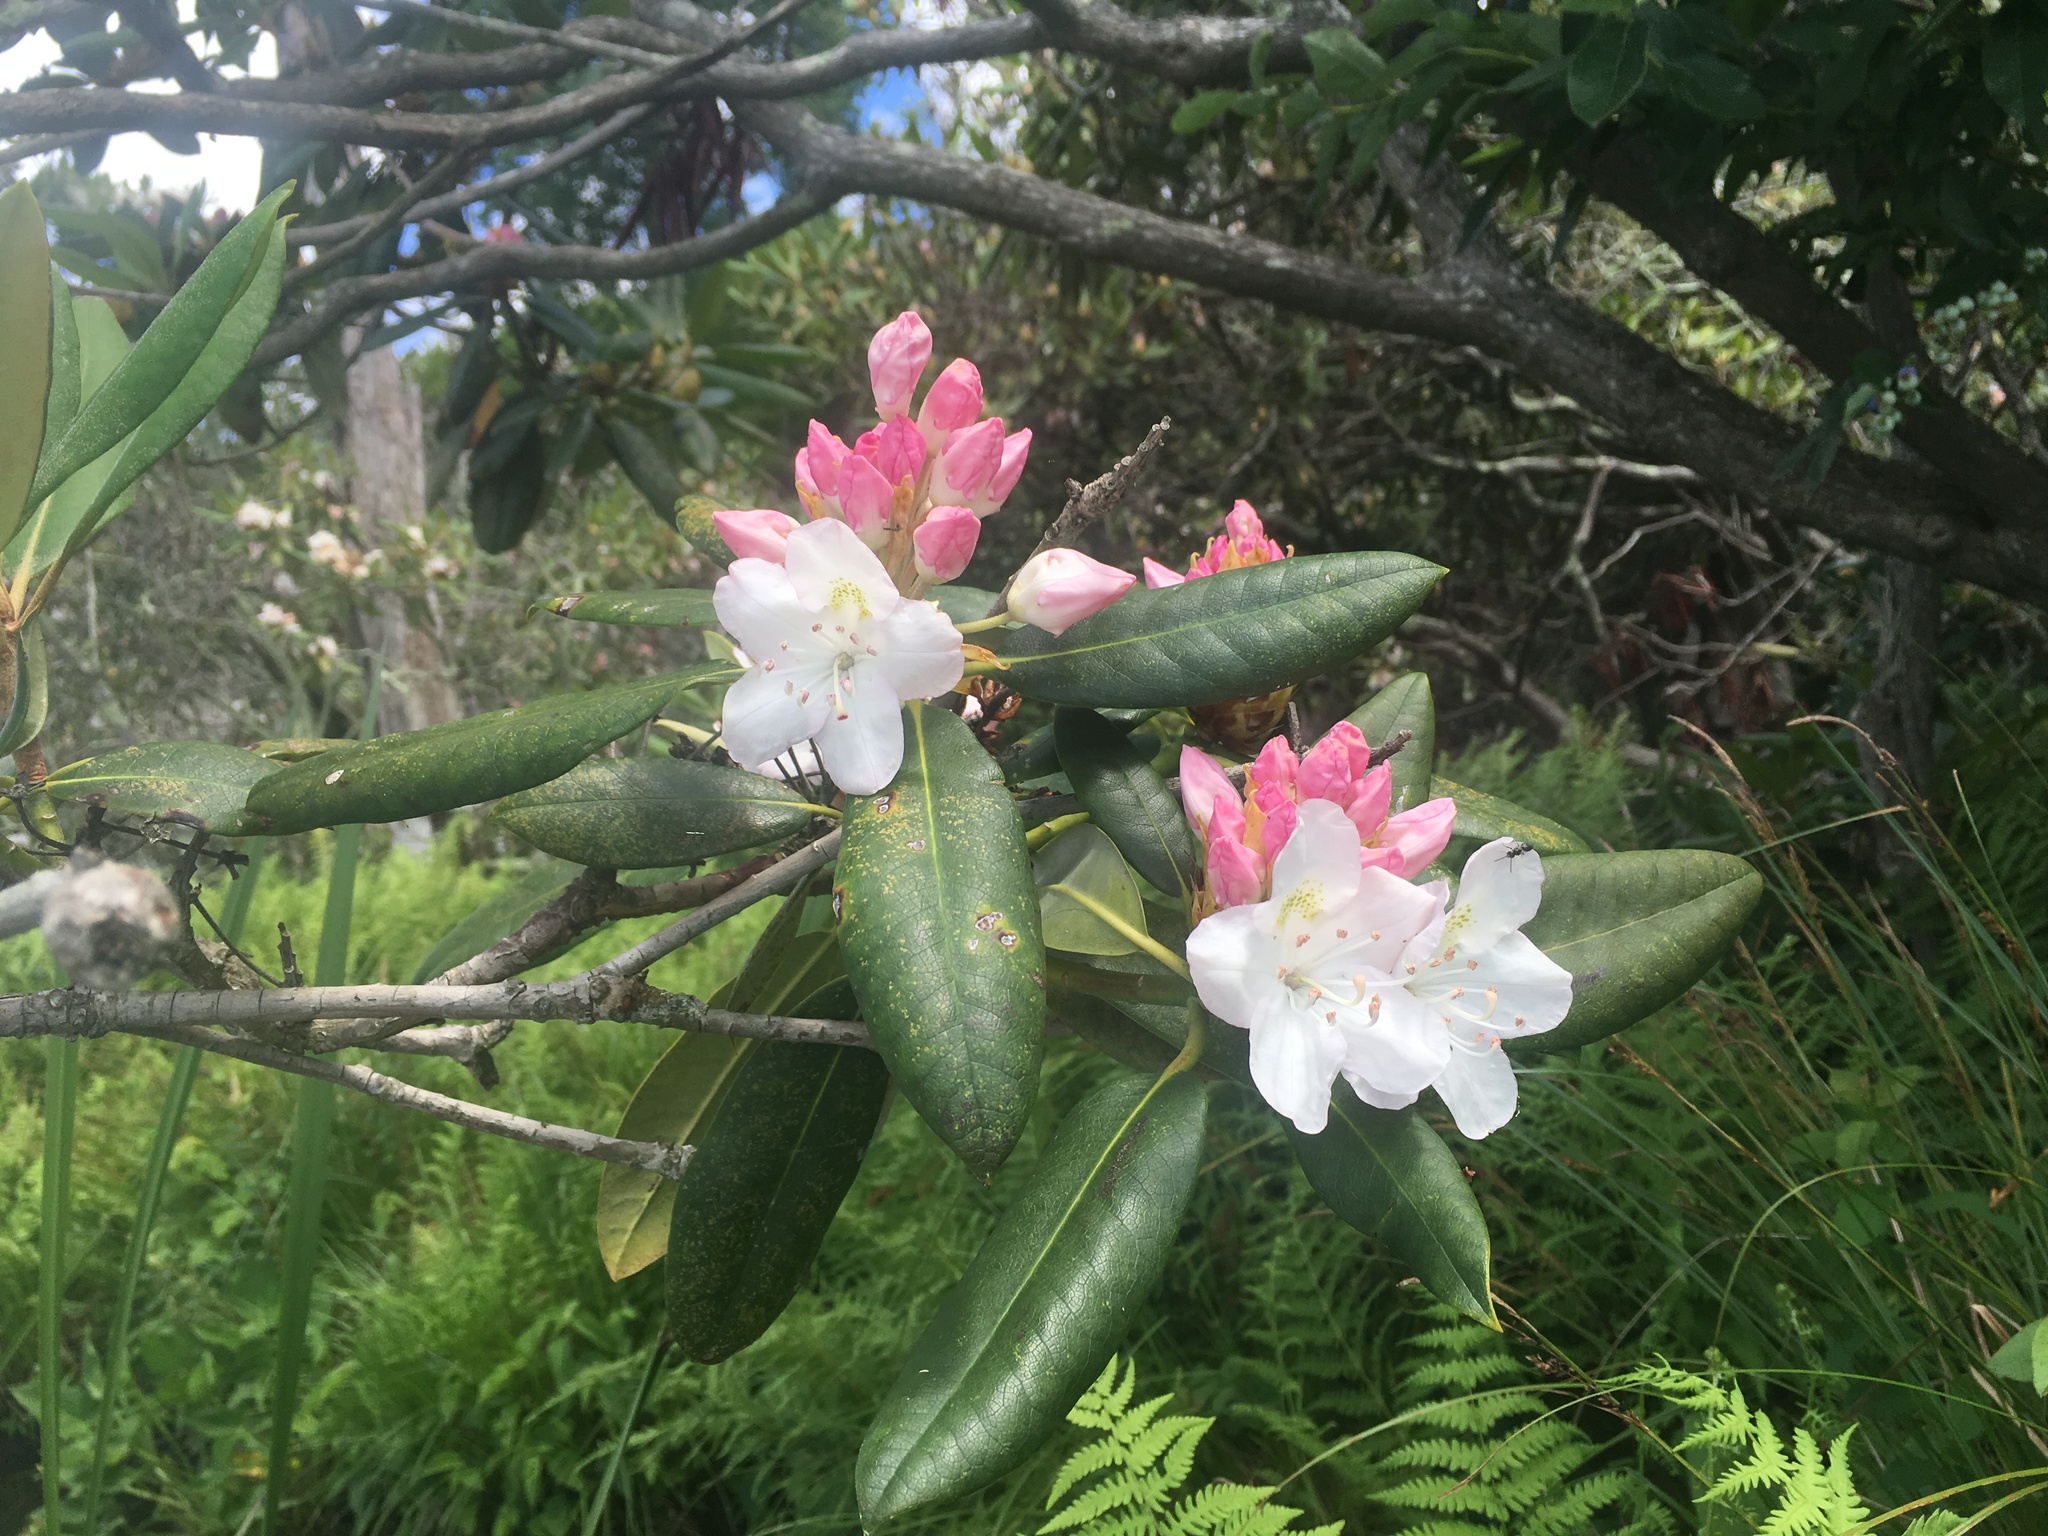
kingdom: Plantae
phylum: Tracheophyta
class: Magnoliopsida
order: Ericales
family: Ericaceae
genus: Rhododendron
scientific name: Rhododendron maximum
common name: Great rhododendron
